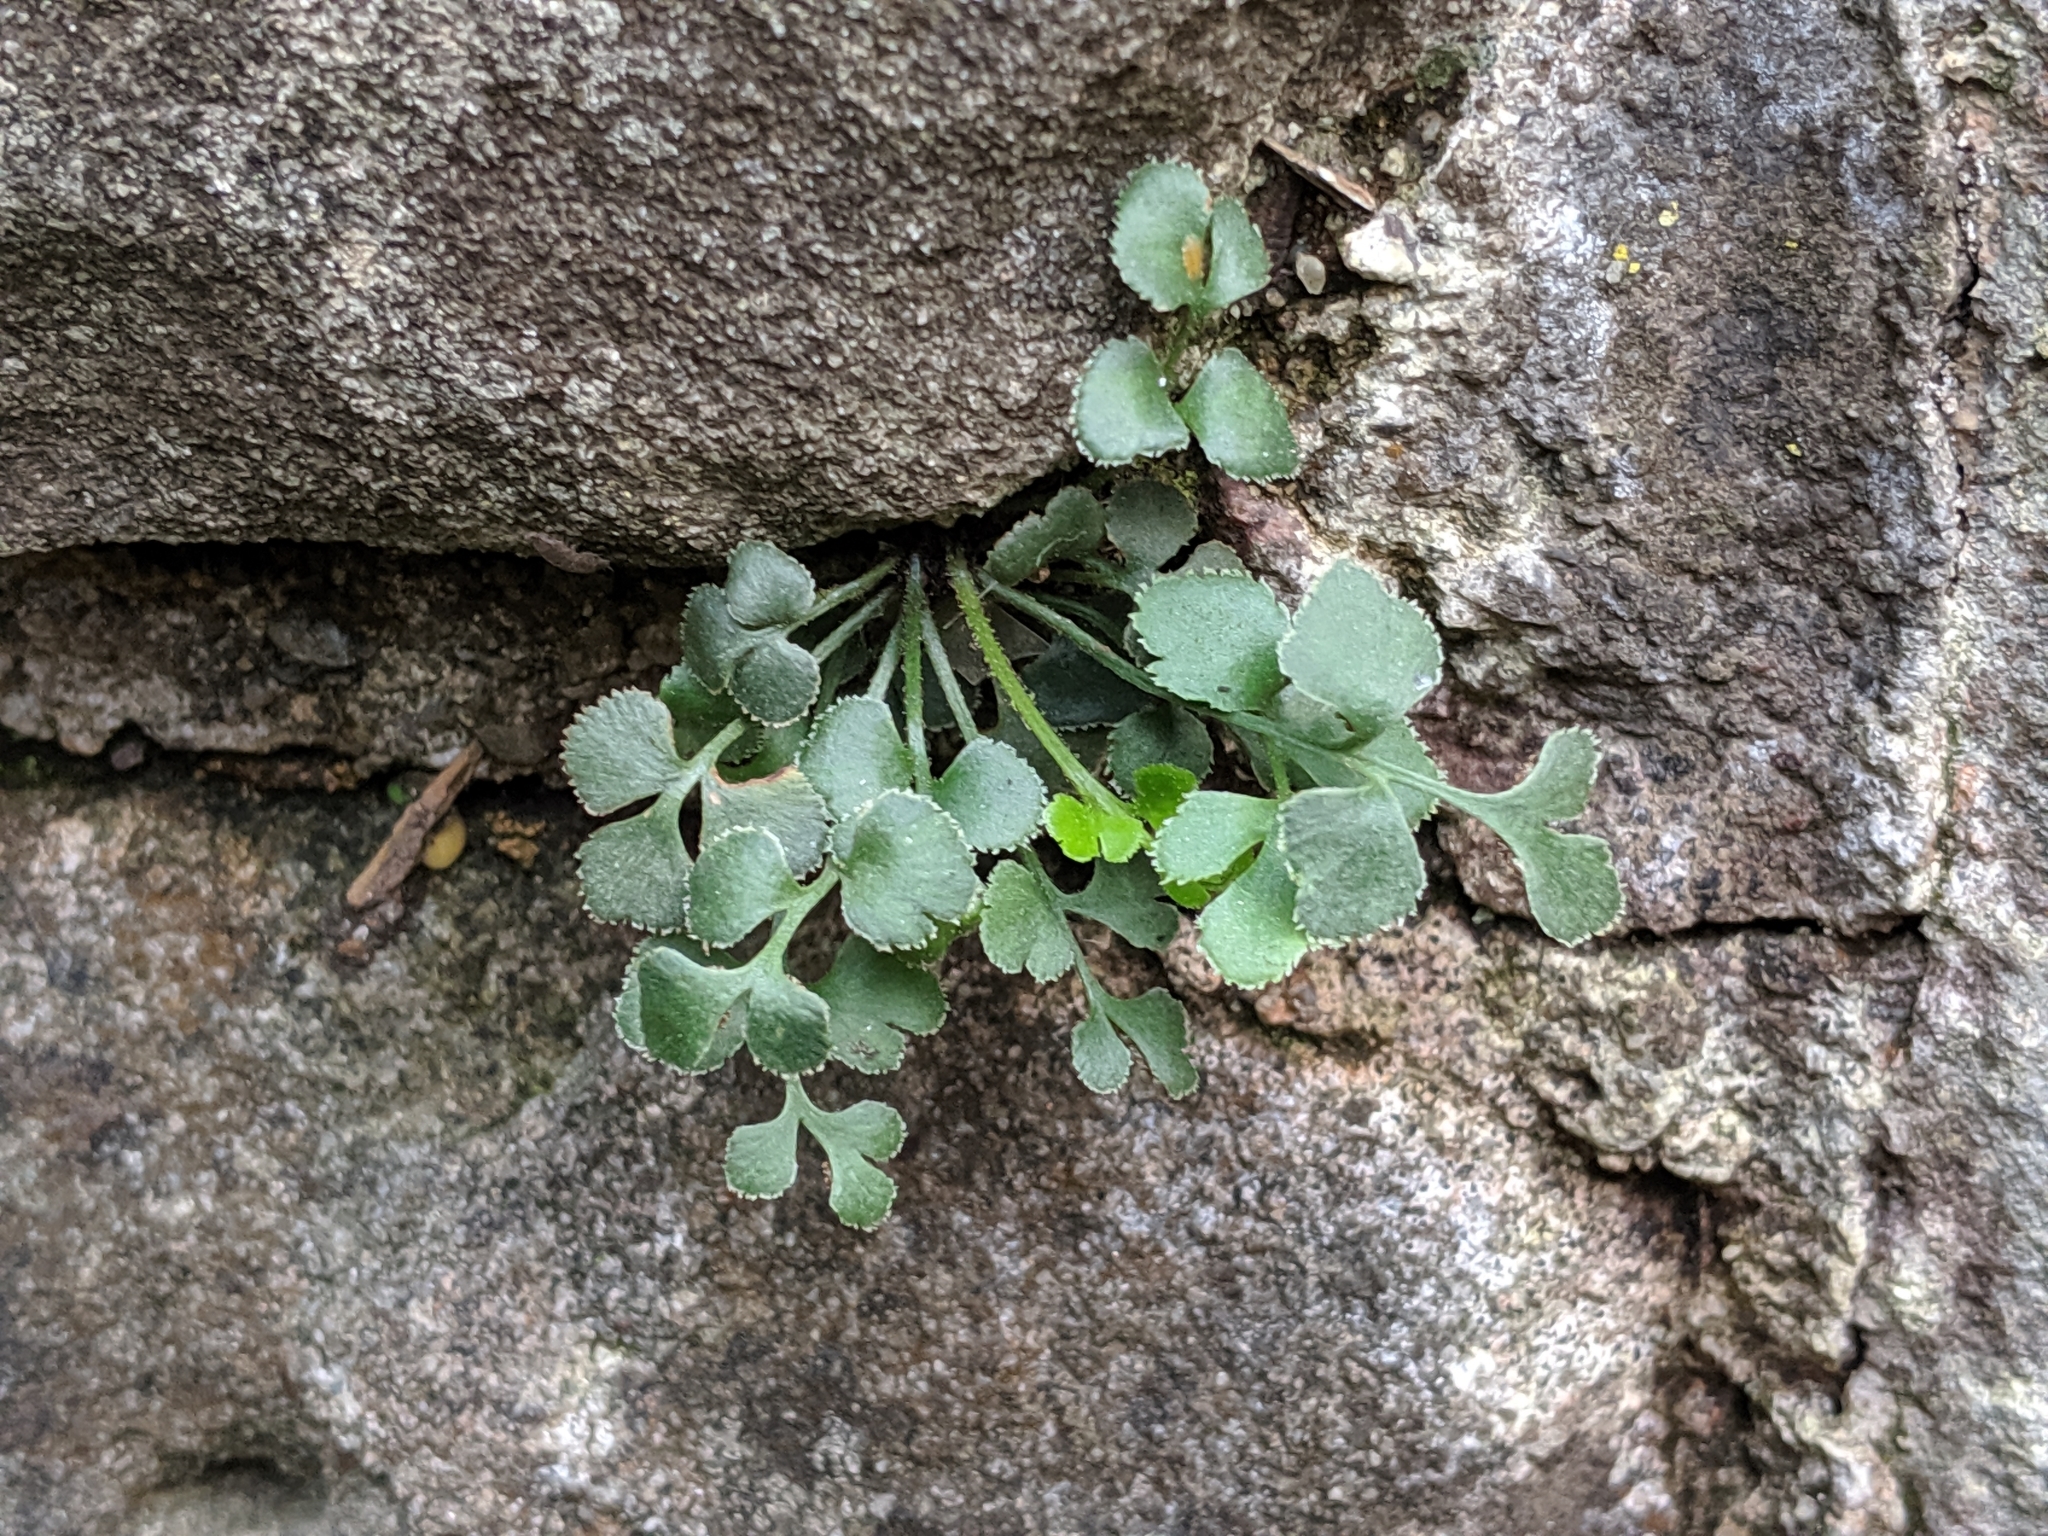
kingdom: Plantae
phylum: Tracheophyta
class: Polypodiopsida
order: Polypodiales
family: Aspleniaceae
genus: Asplenium
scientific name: Asplenium ruta-muraria
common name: Wall-rue
